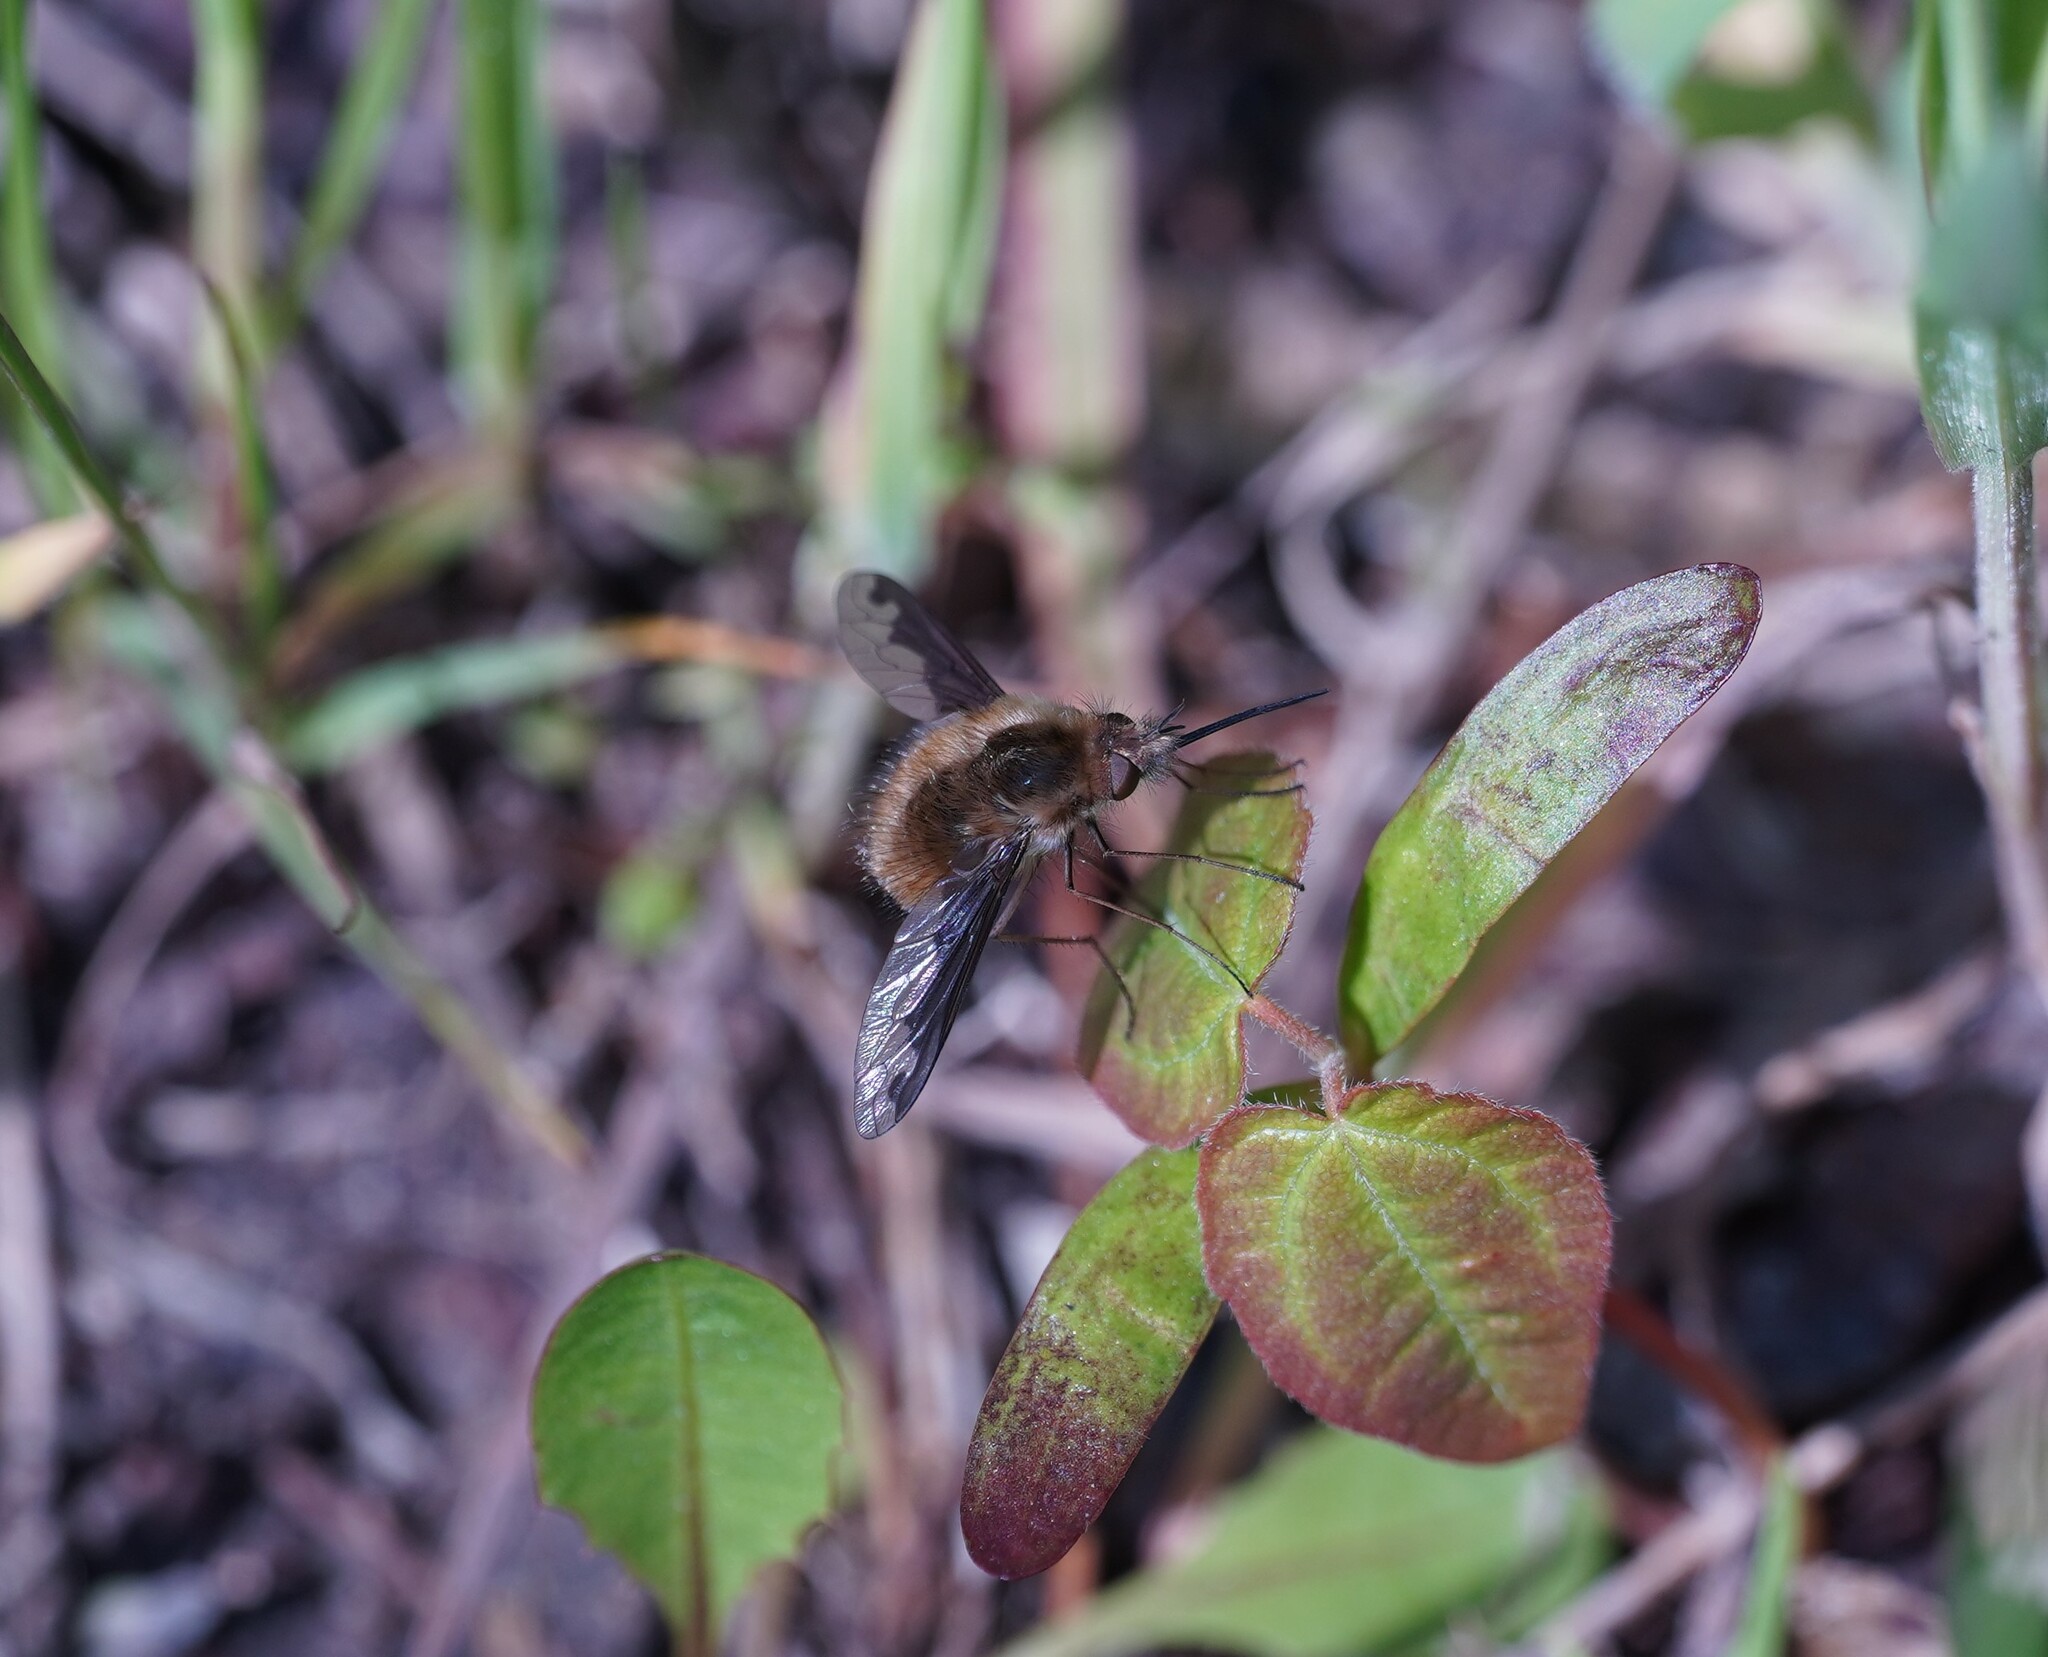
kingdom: Animalia
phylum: Arthropoda
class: Insecta
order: Diptera
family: Bombyliidae
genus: Bombylius
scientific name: Bombylius major
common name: Bee fly
